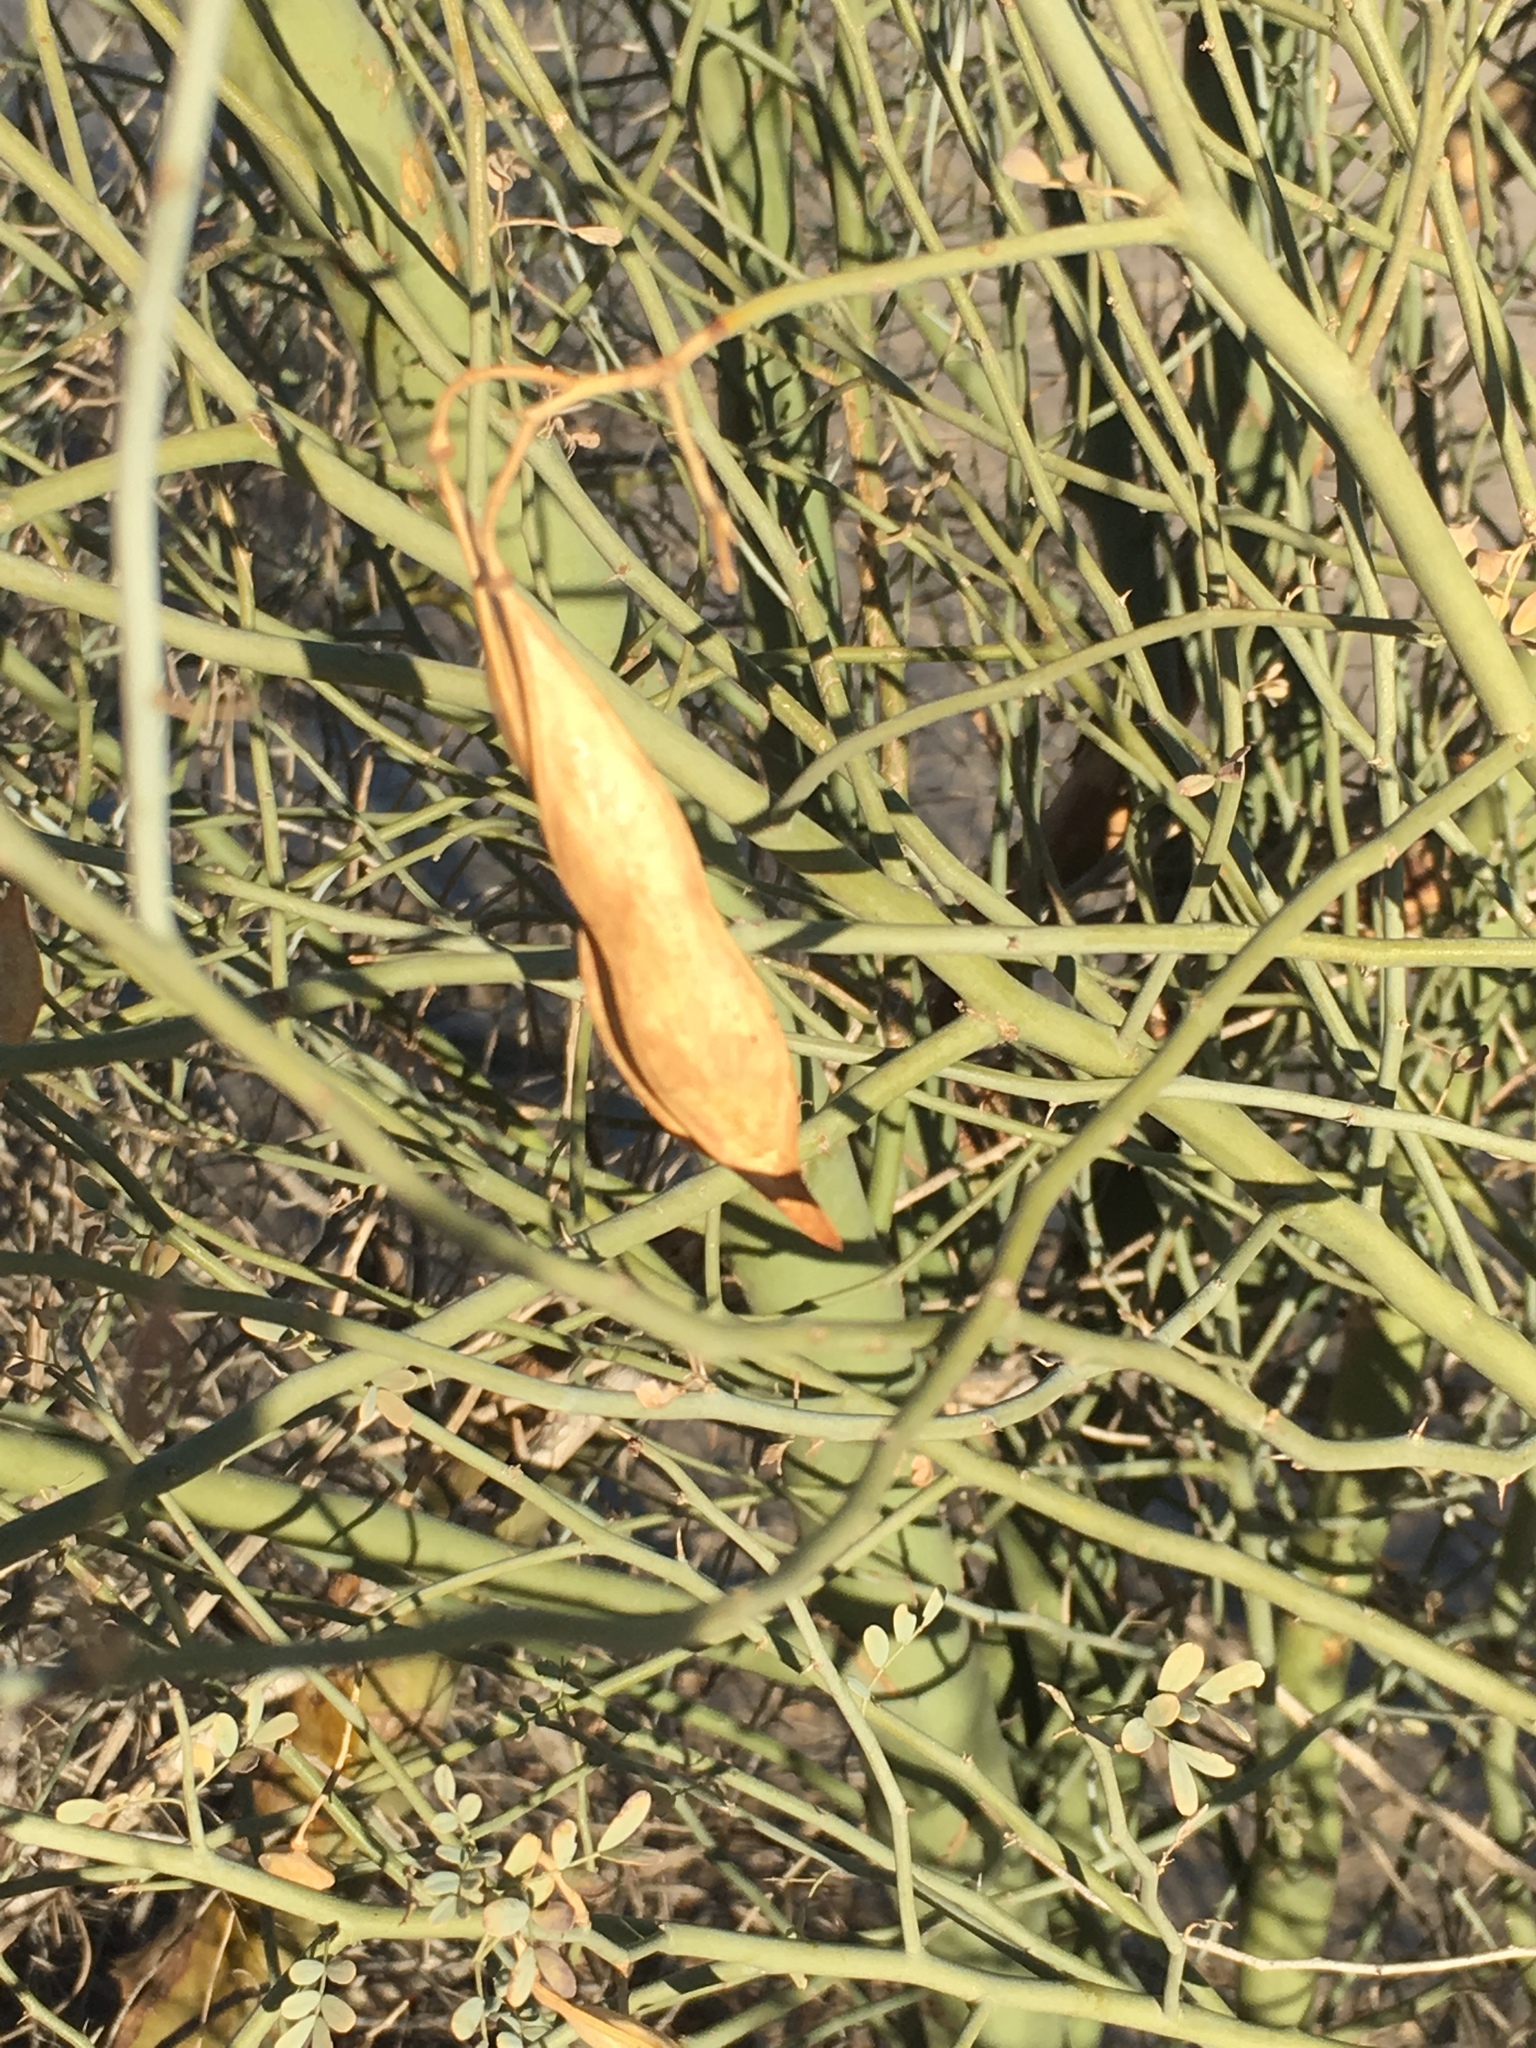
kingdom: Plantae
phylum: Tracheophyta
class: Magnoliopsida
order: Fabales
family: Fabaceae
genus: Parkinsonia
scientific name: Parkinsonia florida
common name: Blue paloverde
